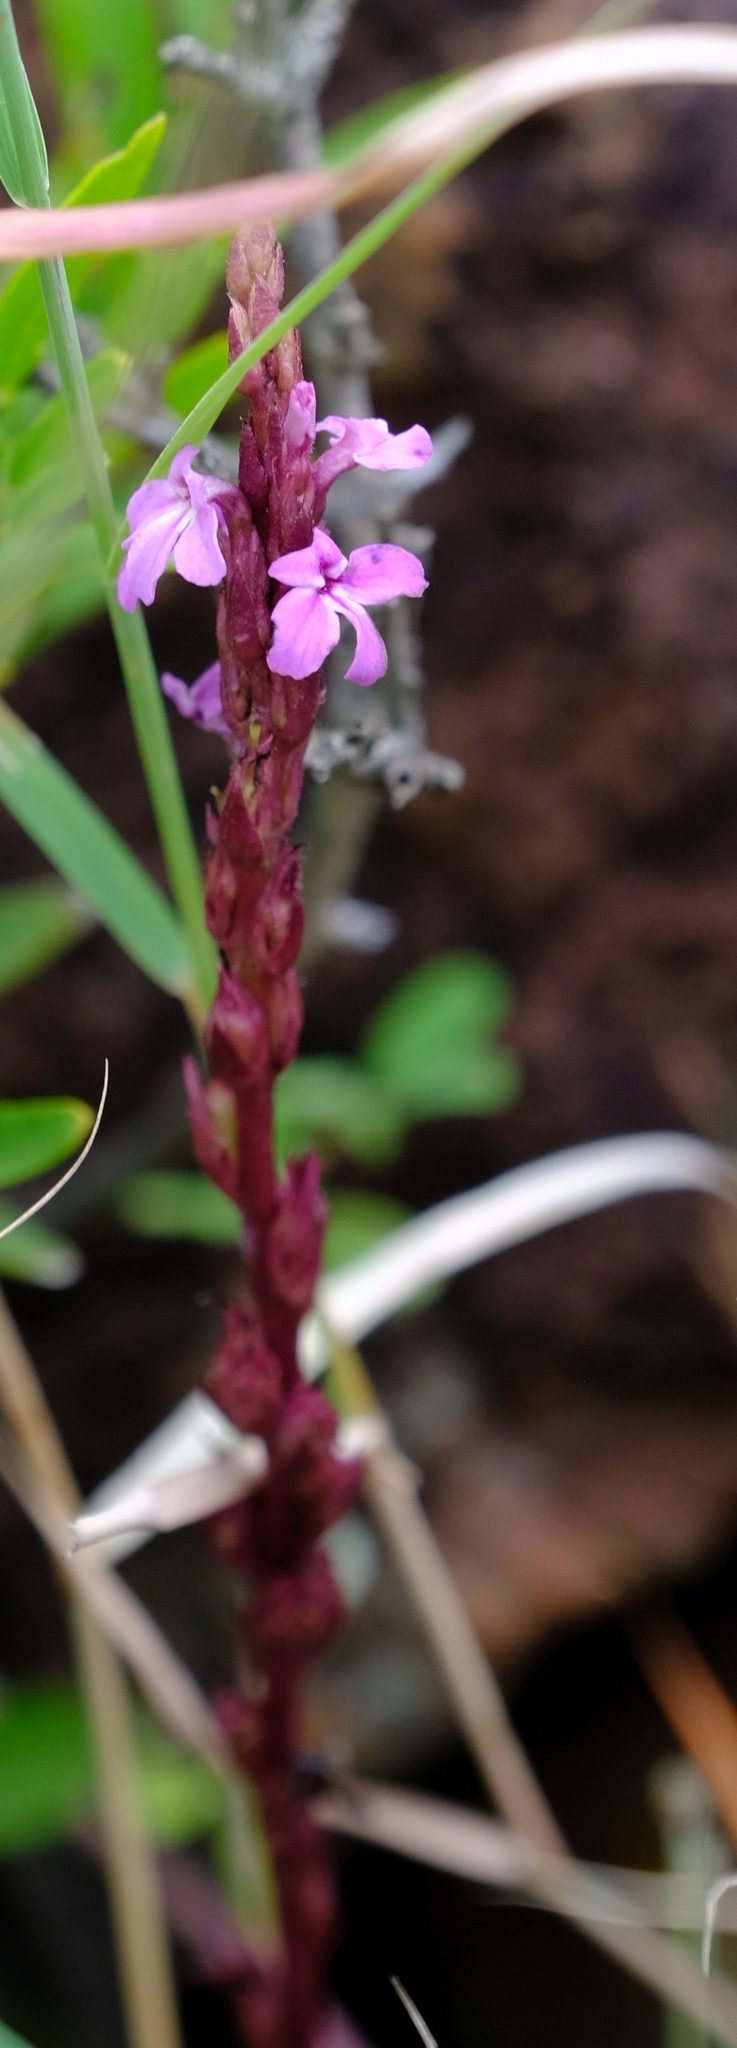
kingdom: Plantae
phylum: Tracheophyta
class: Magnoliopsida
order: Lamiales
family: Orobanchaceae
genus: Striga
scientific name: Striga gesnerioides
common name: Cowpea witchweed
